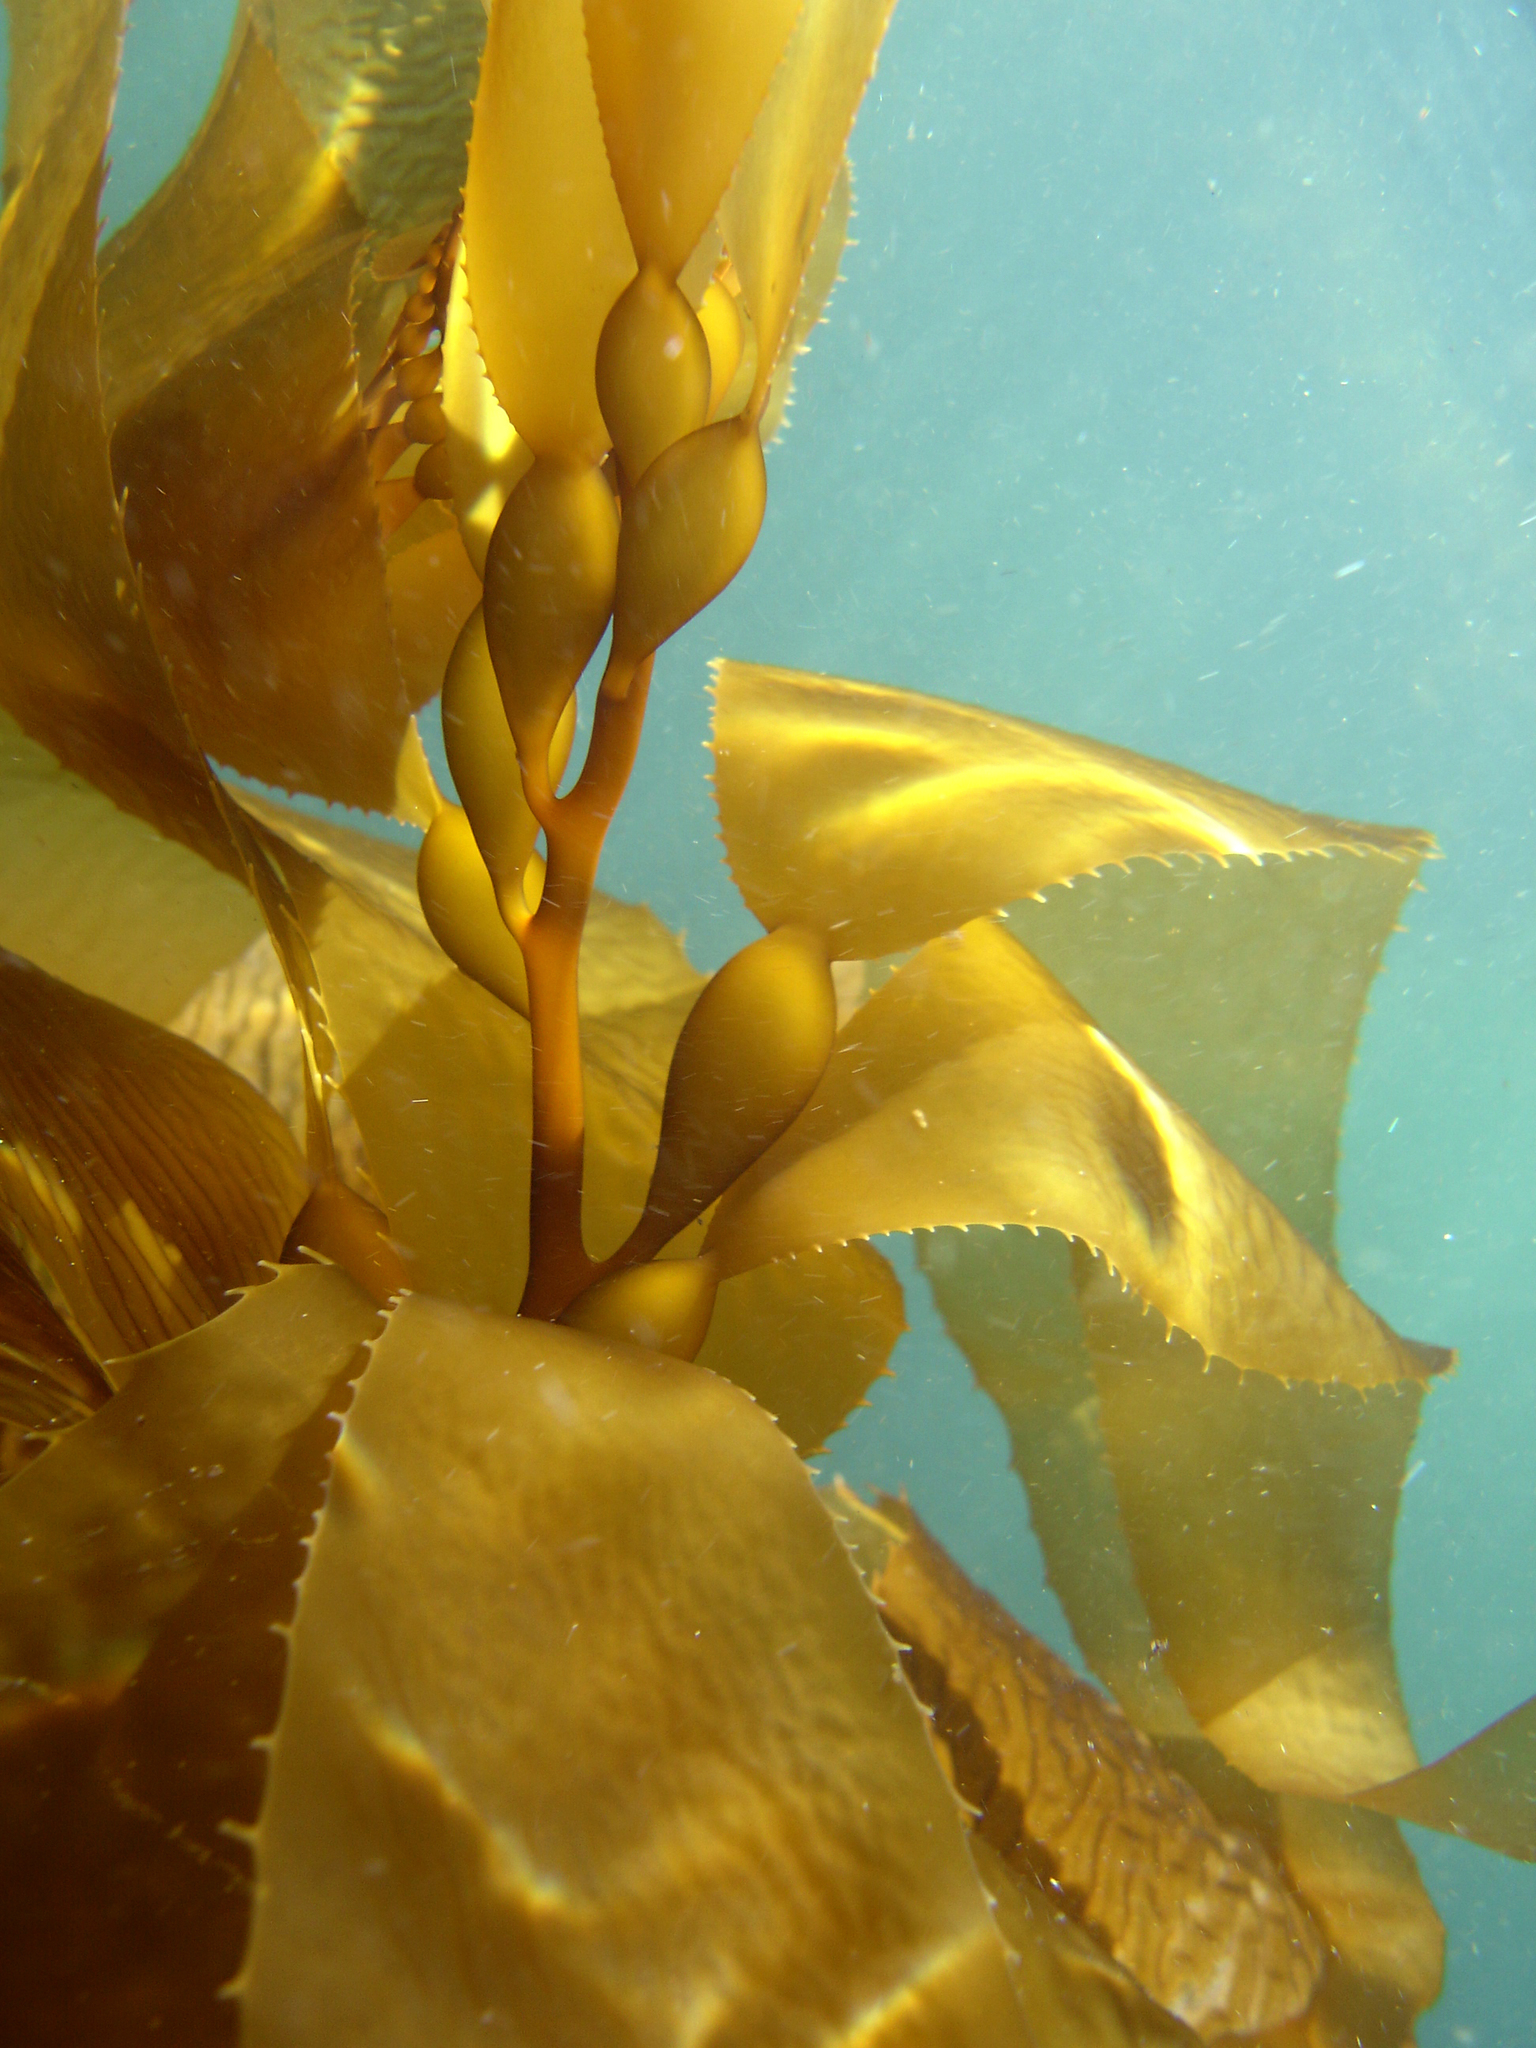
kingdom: Chromista
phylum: Ochrophyta
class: Phaeophyceae
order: Laminariales
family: Laminariaceae
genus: Macrocystis
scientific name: Macrocystis pyrifera
